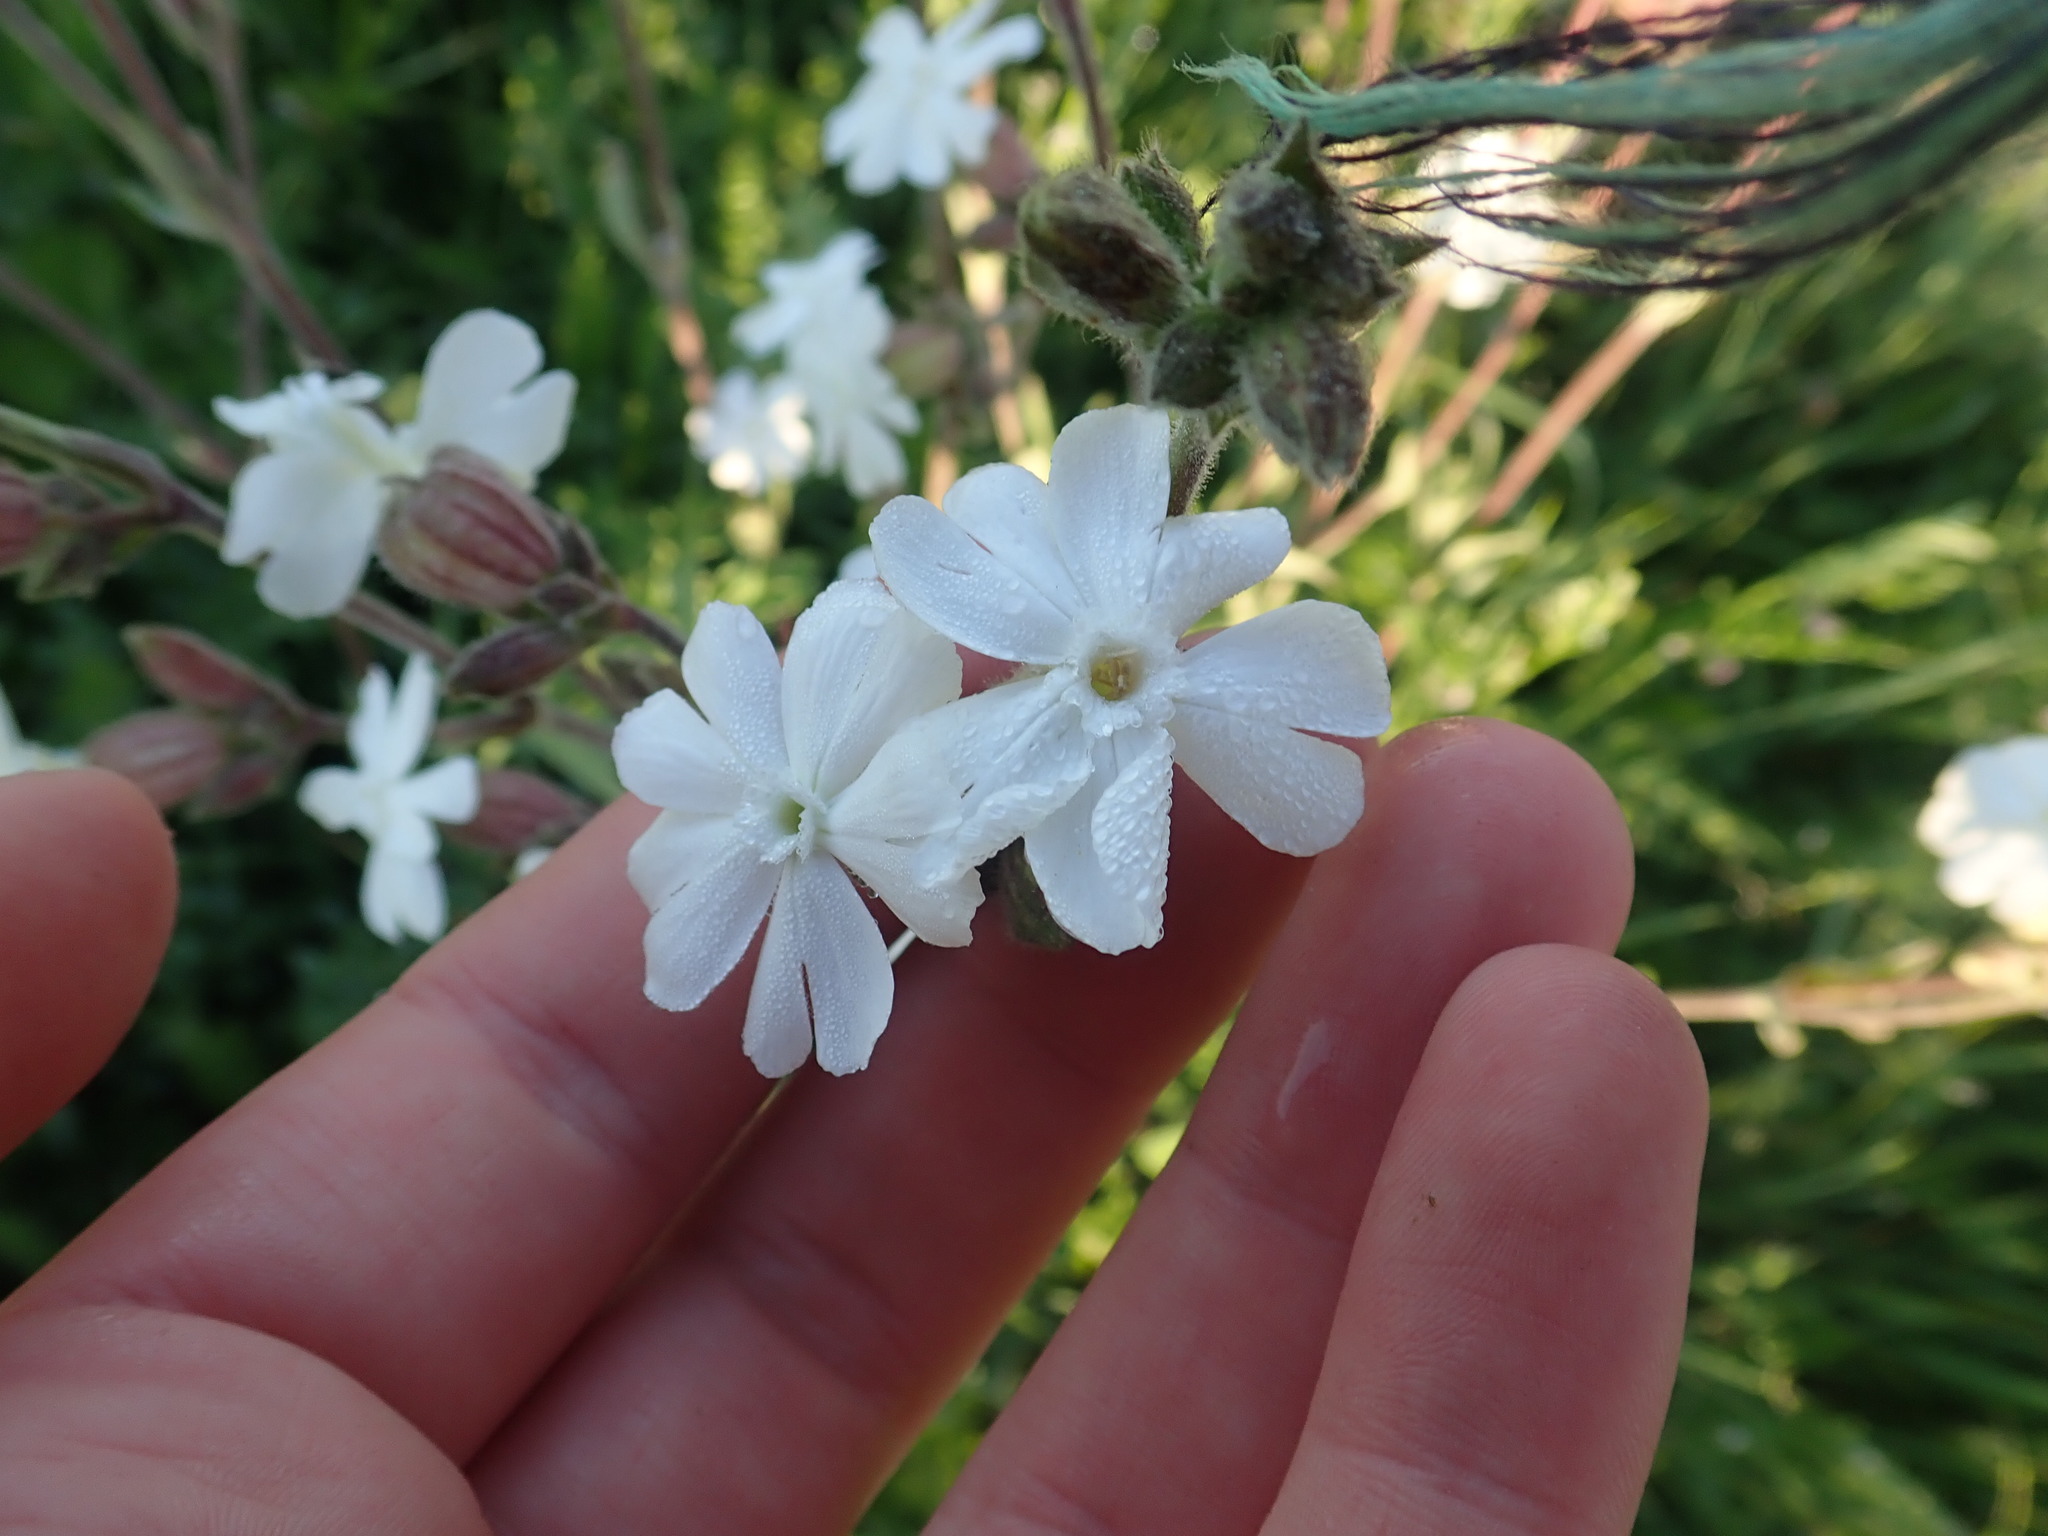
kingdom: Plantae
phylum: Tracheophyta
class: Magnoliopsida
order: Caryophyllales
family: Caryophyllaceae
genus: Silene
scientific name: Silene latifolia
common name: White campion
